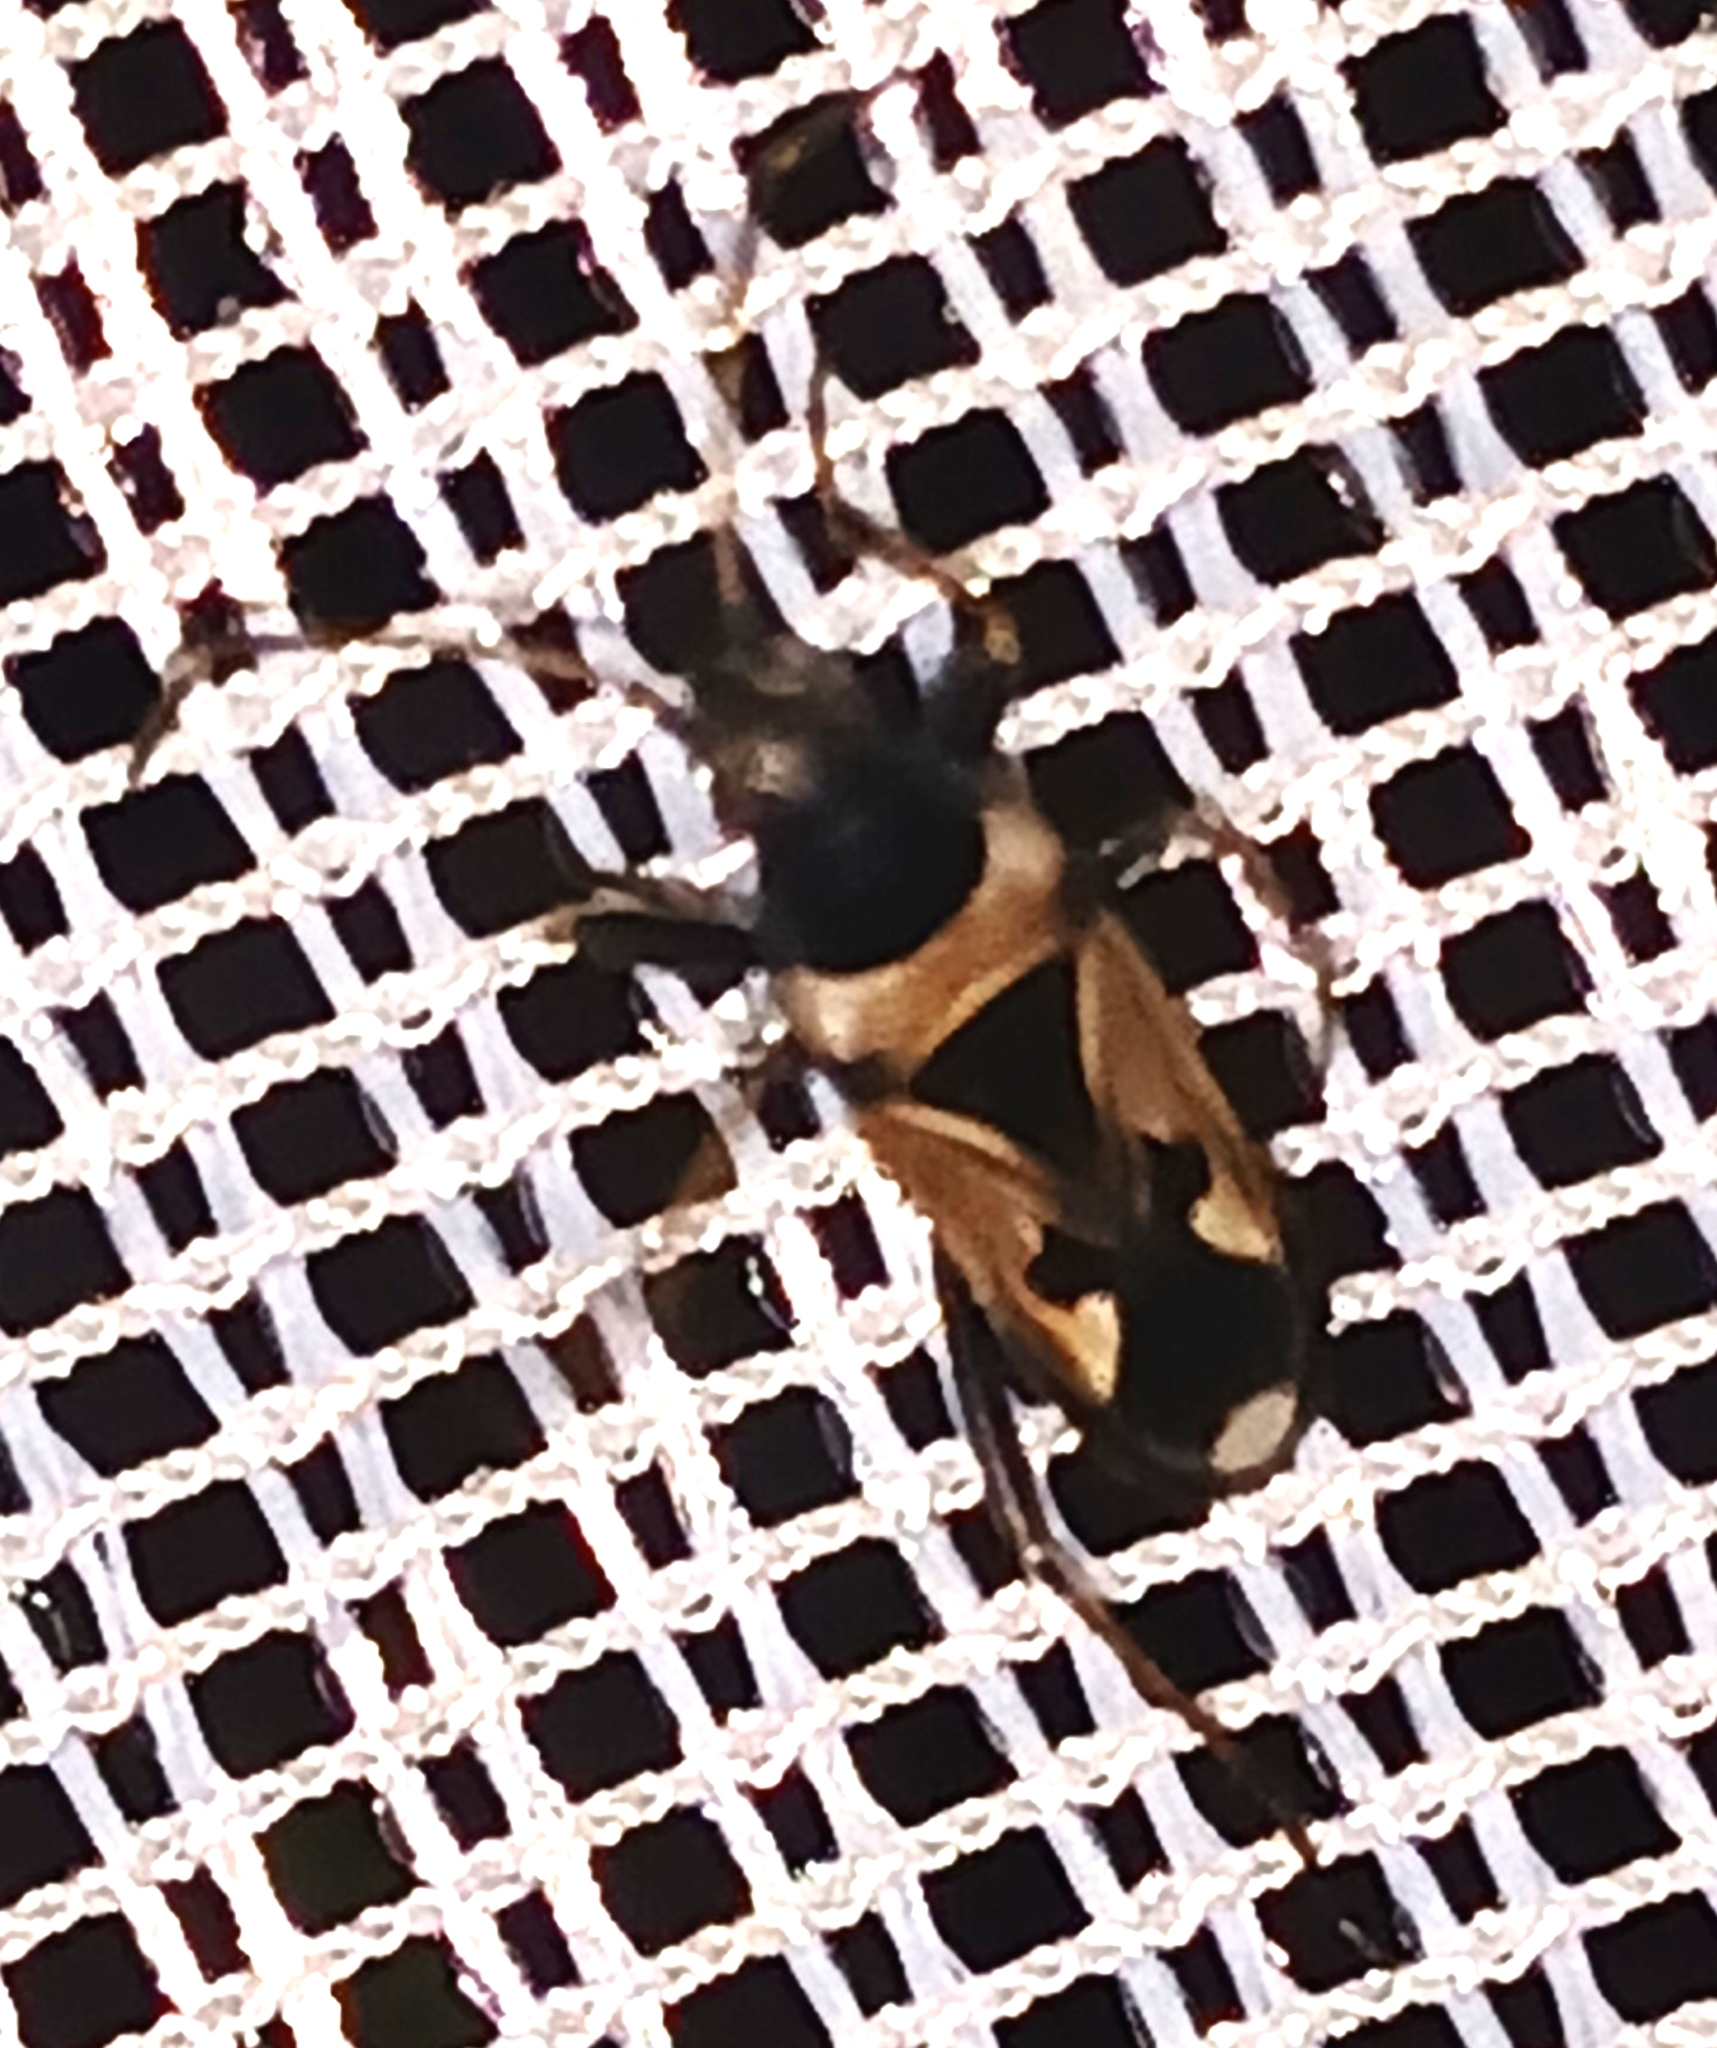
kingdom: Animalia
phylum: Arthropoda
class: Insecta
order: Hemiptera
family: Rhyparochromidae
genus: Raglius
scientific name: Raglius confusus
